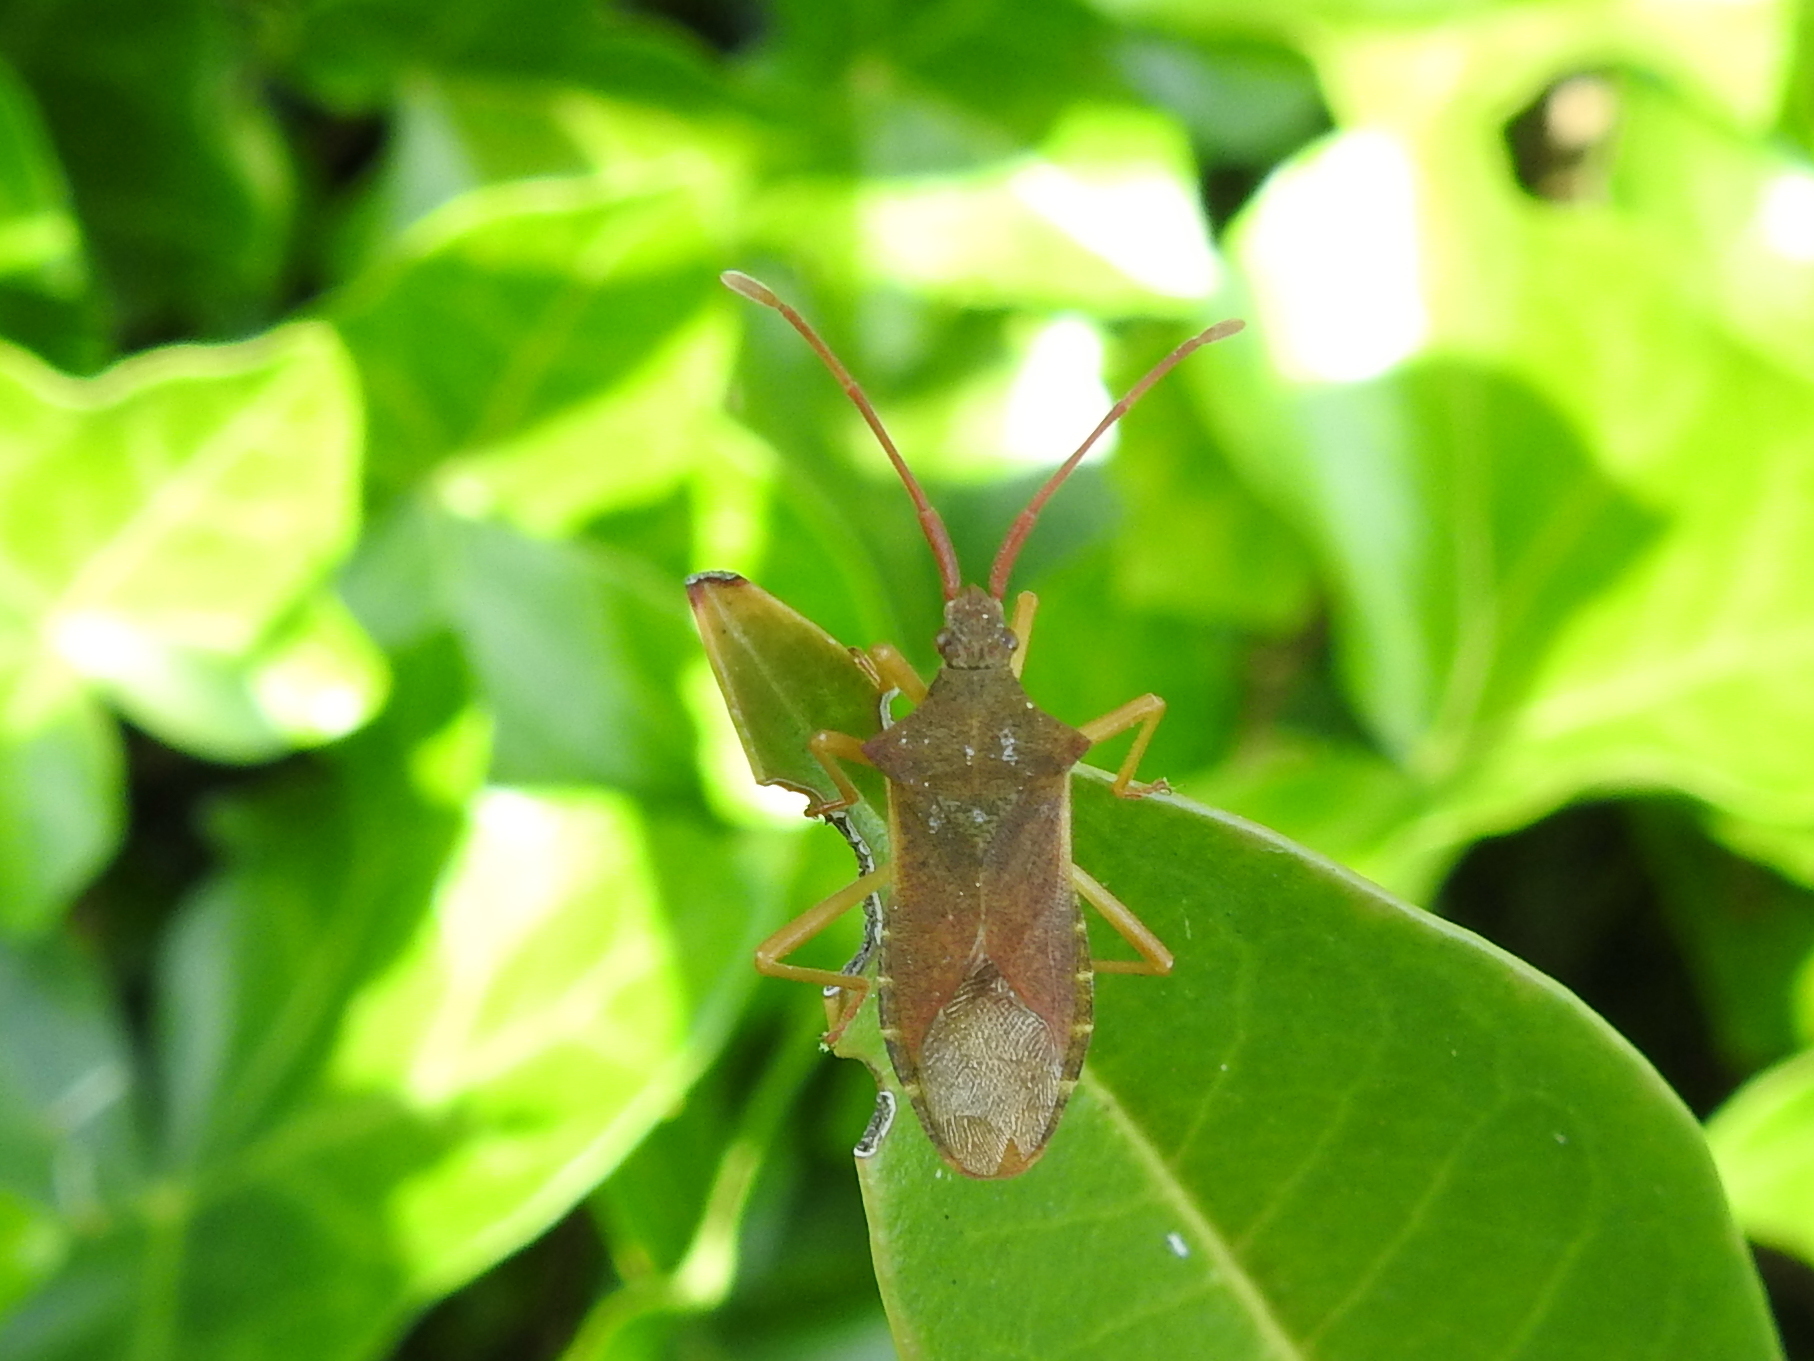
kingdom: Animalia
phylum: Arthropoda
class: Insecta
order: Hemiptera
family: Coreidae
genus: Gonocerus
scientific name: Gonocerus acuteangulatus
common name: Box bug
